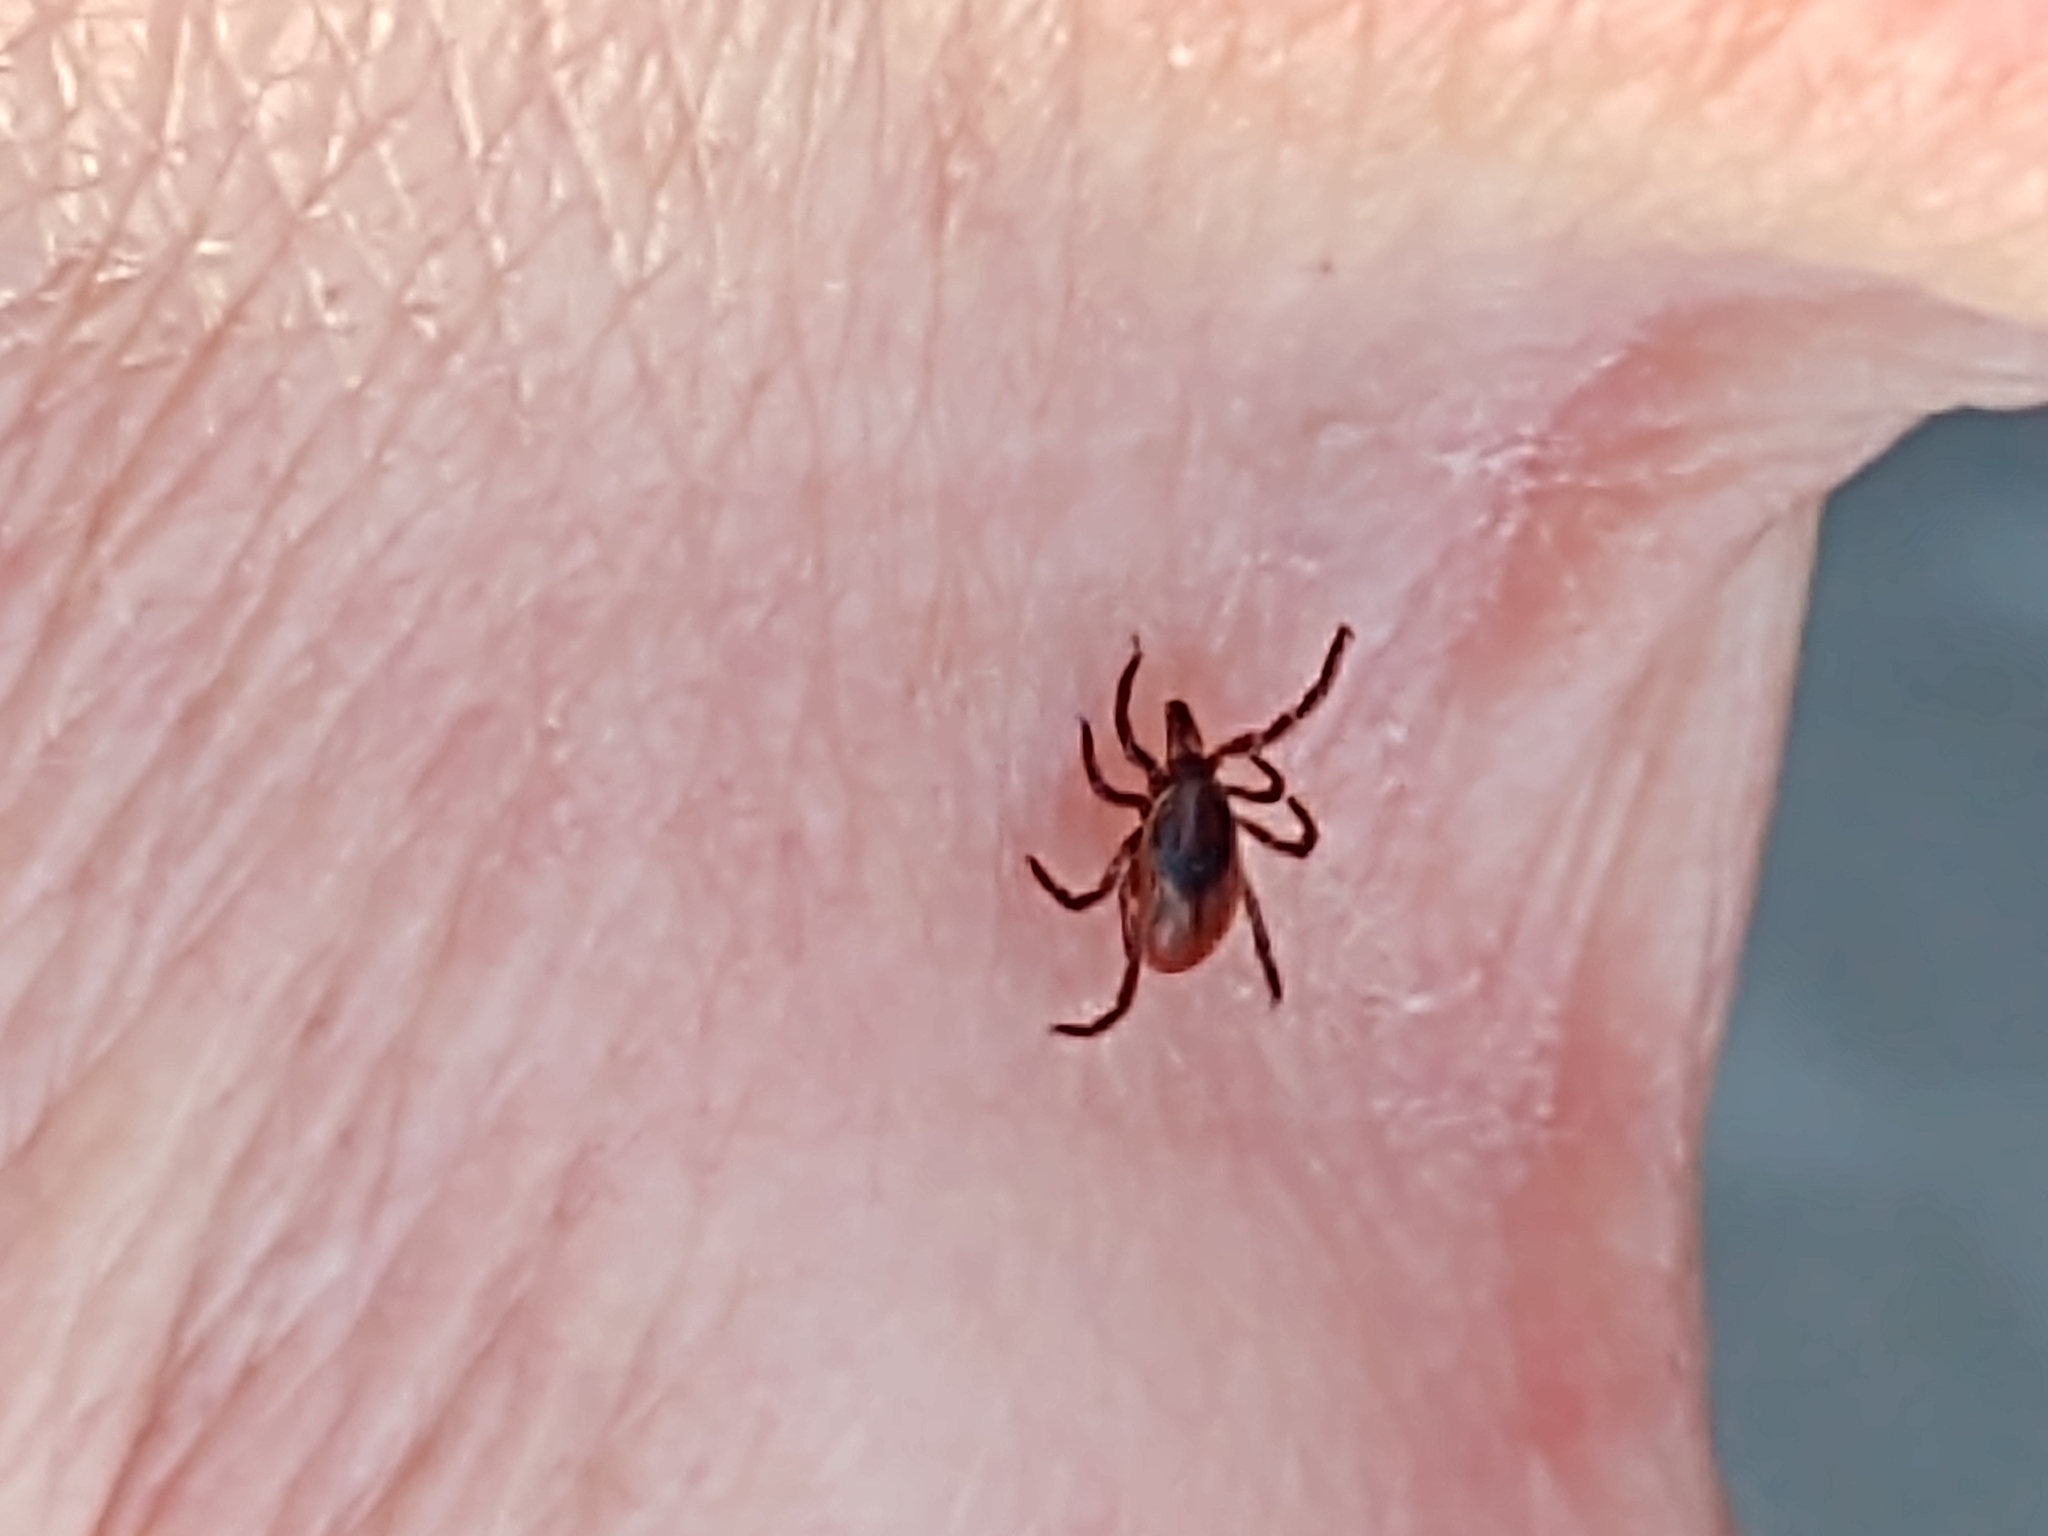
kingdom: Animalia
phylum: Arthropoda
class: Arachnida
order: Ixodida
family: Ixodidae
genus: Ixodes
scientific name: Ixodes scapularis
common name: Black legged tick
